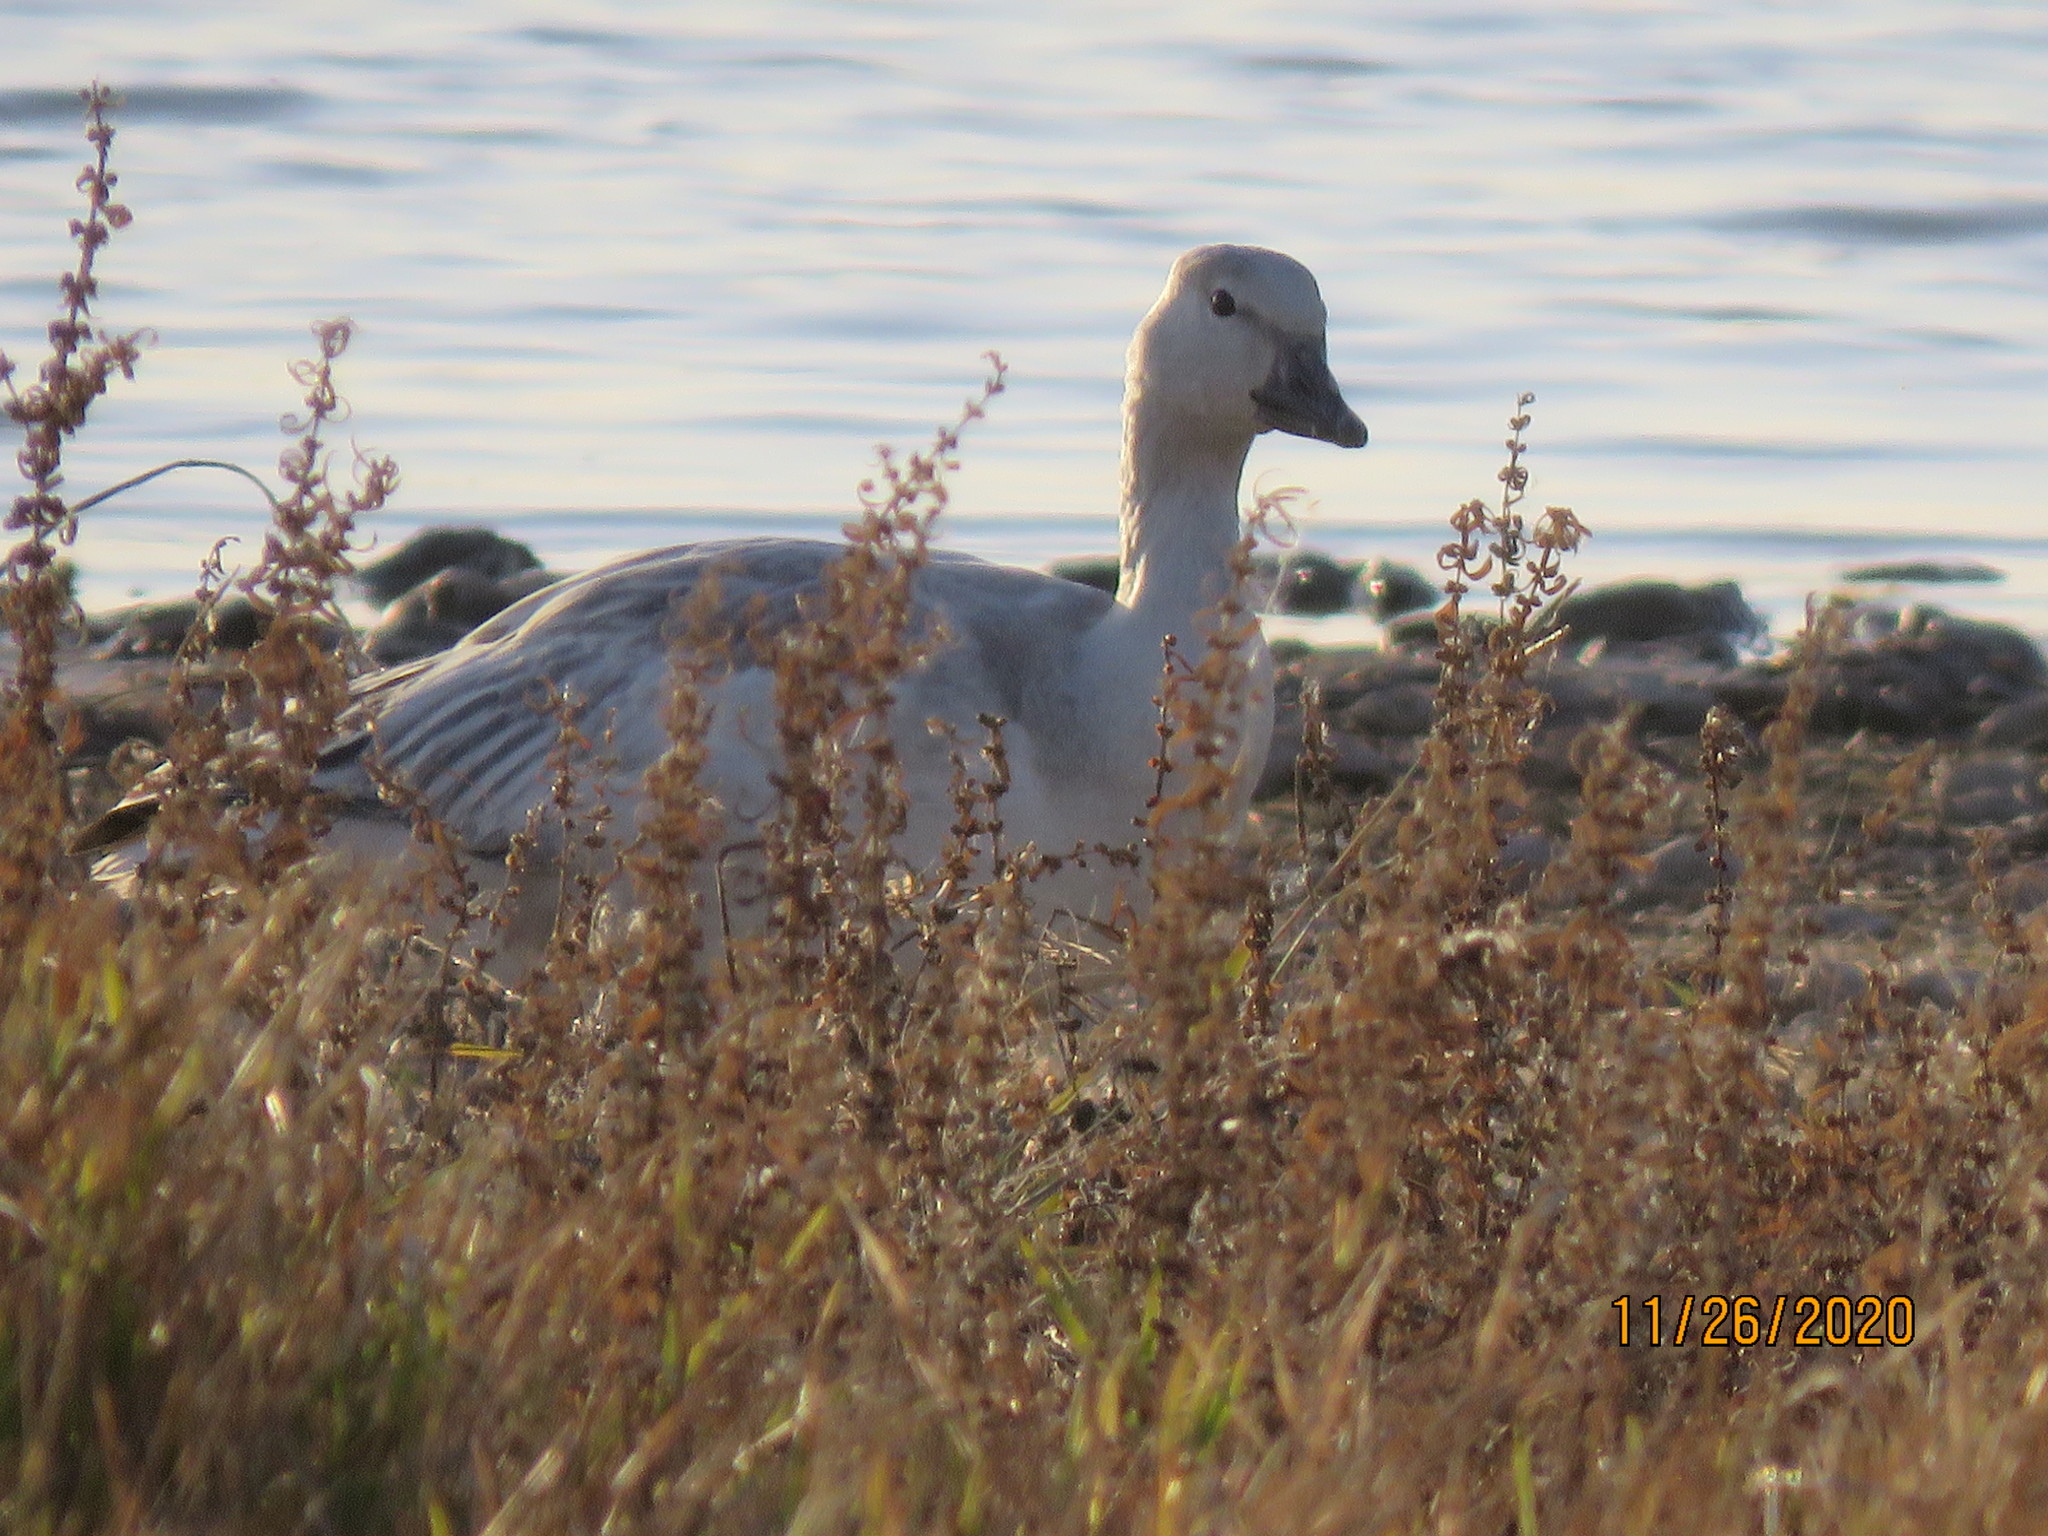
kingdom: Animalia
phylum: Chordata
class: Aves
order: Anseriformes
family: Anatidae
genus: Anser
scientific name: Anser caerulescens
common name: Snow goose
